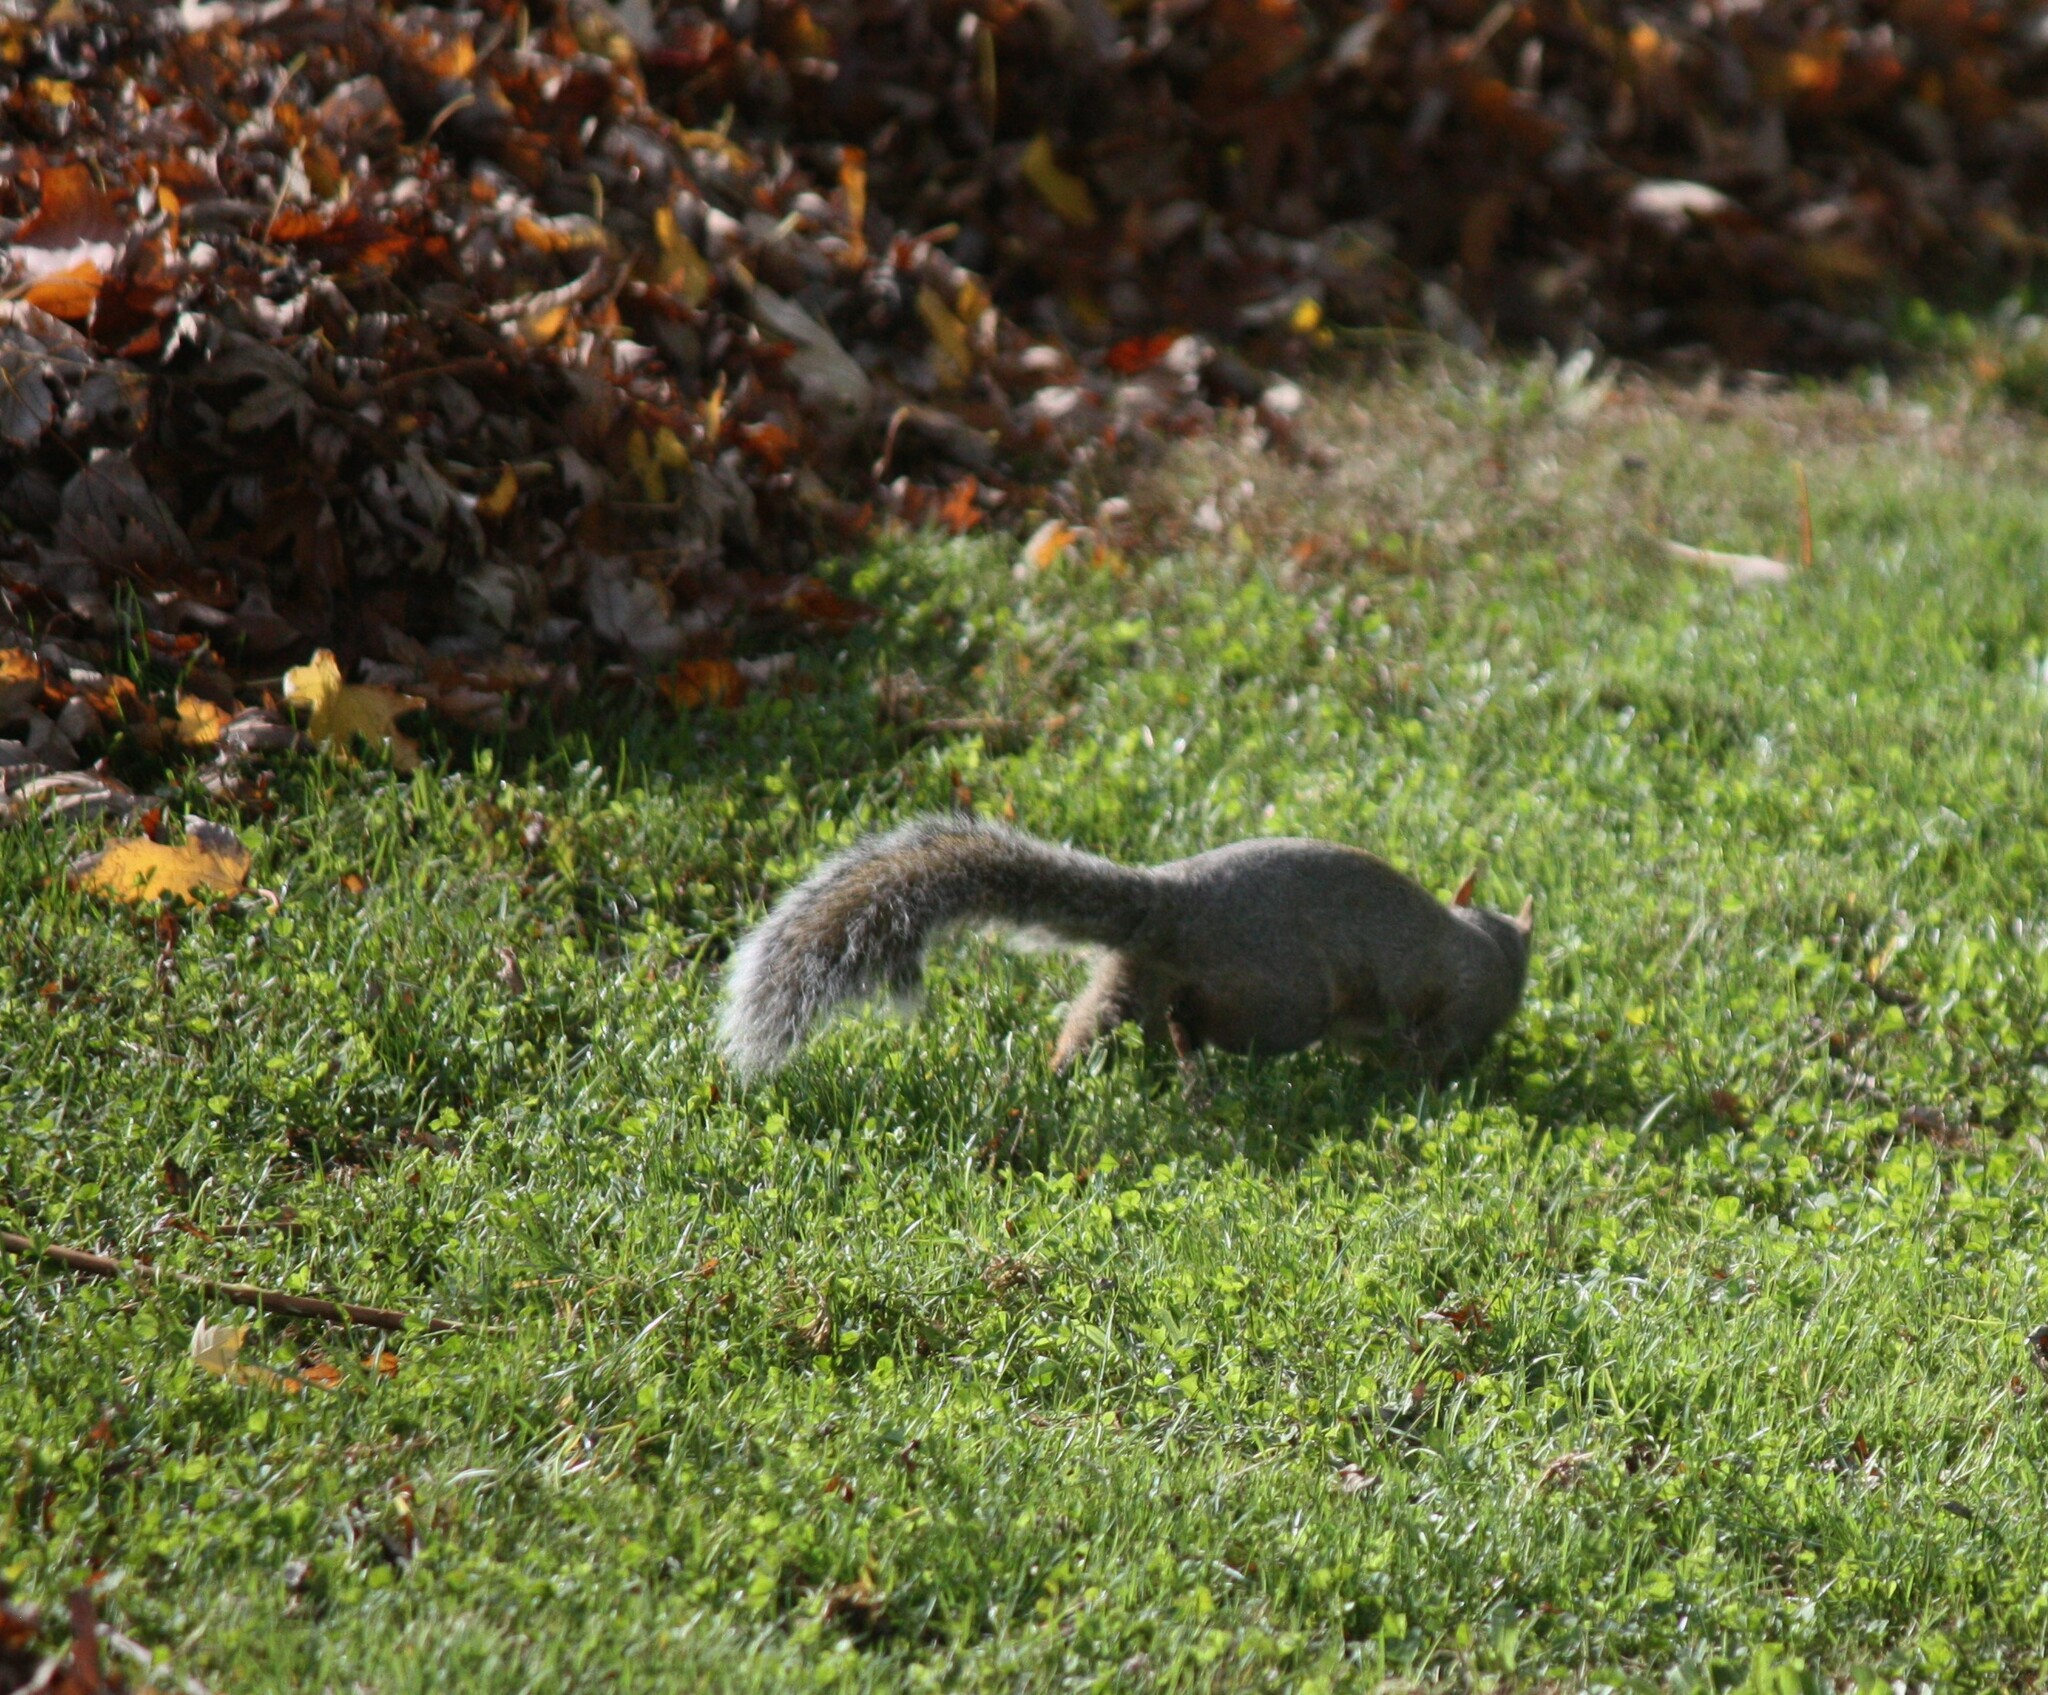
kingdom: Animalia
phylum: Chordata
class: Mammalia
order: Rodentia
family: Sciuridae
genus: Sciurus
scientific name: Sciurus carolinensis
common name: Eastern gray squirrel
